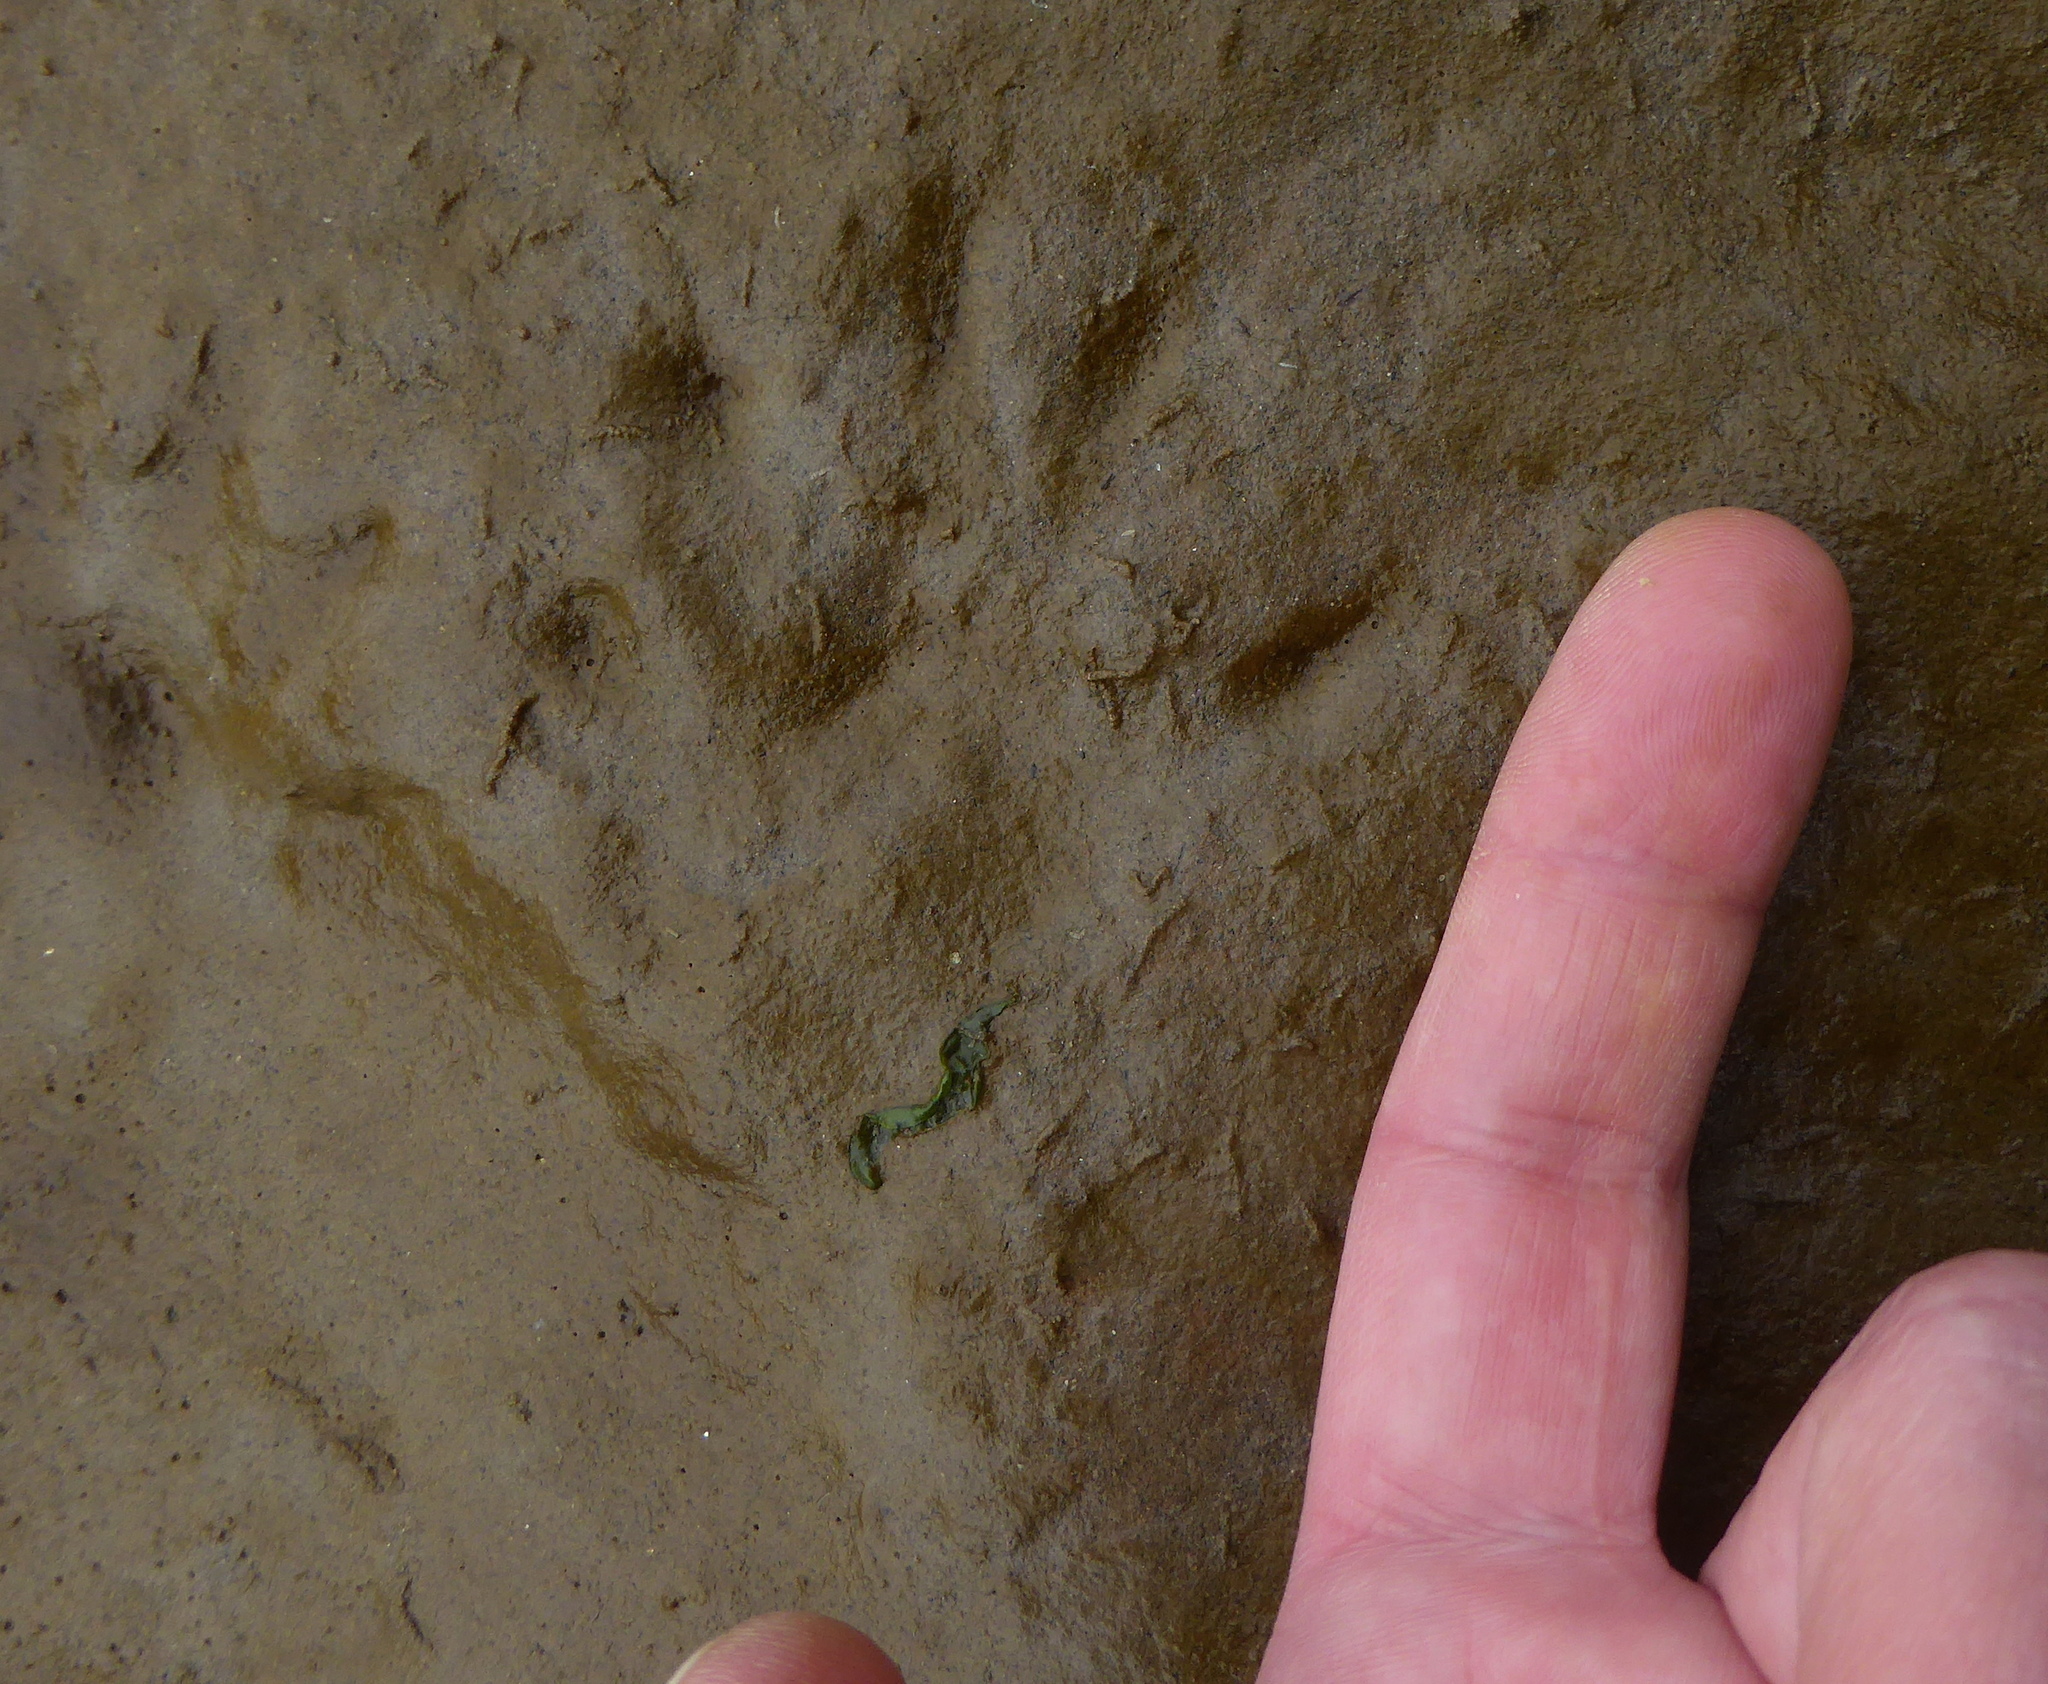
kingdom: Animalia
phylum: Chordata
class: Mammalia
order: Carnivora
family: Procyonidae
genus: Procyon
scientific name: Procyon lotor
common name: Raccoon
